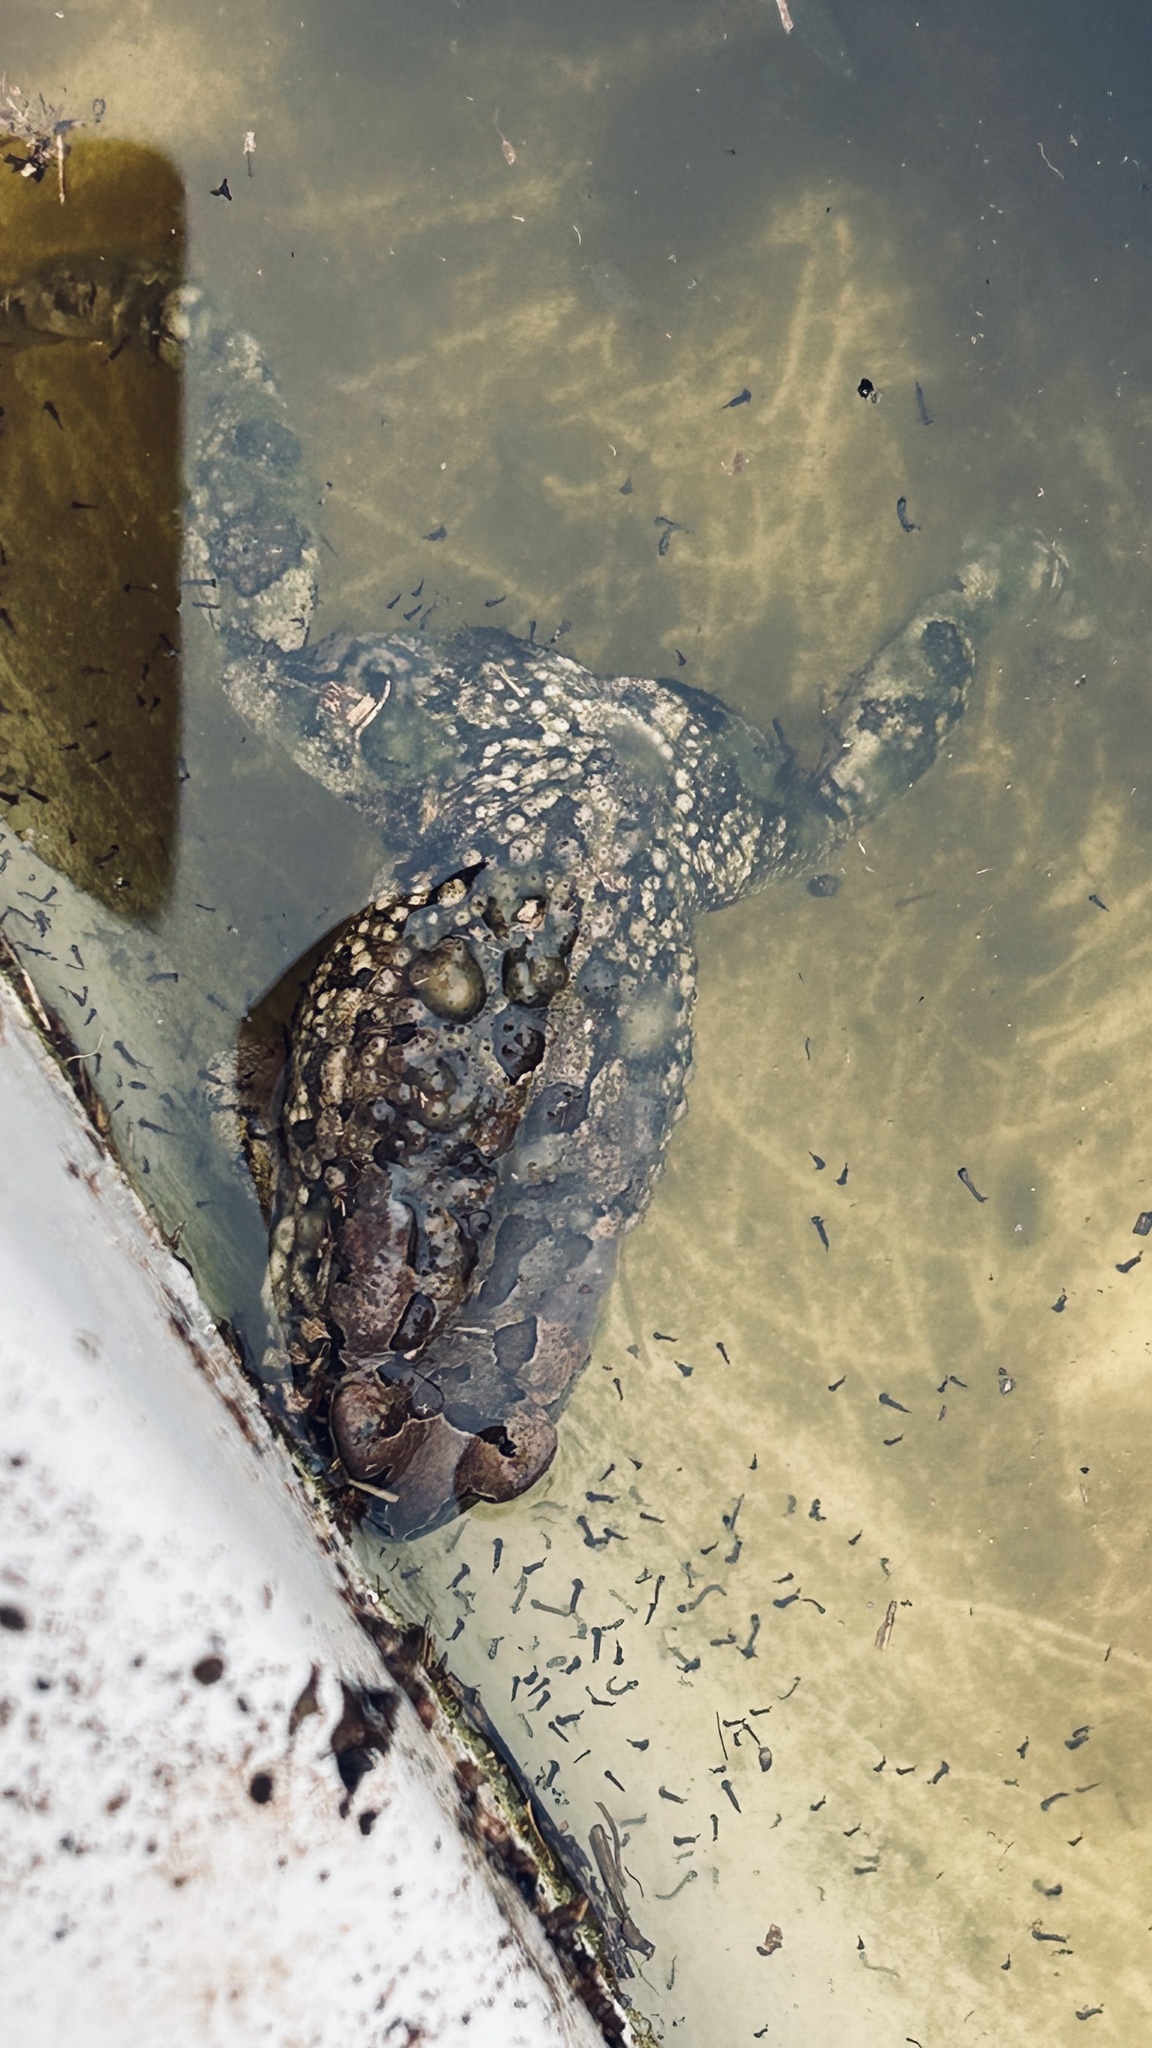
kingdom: Animalia
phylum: Chordata
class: Amphibia
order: Anura
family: Bufonidae
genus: Sclerophrys
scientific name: Sclerophrys capensis
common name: Ranger’s toad
